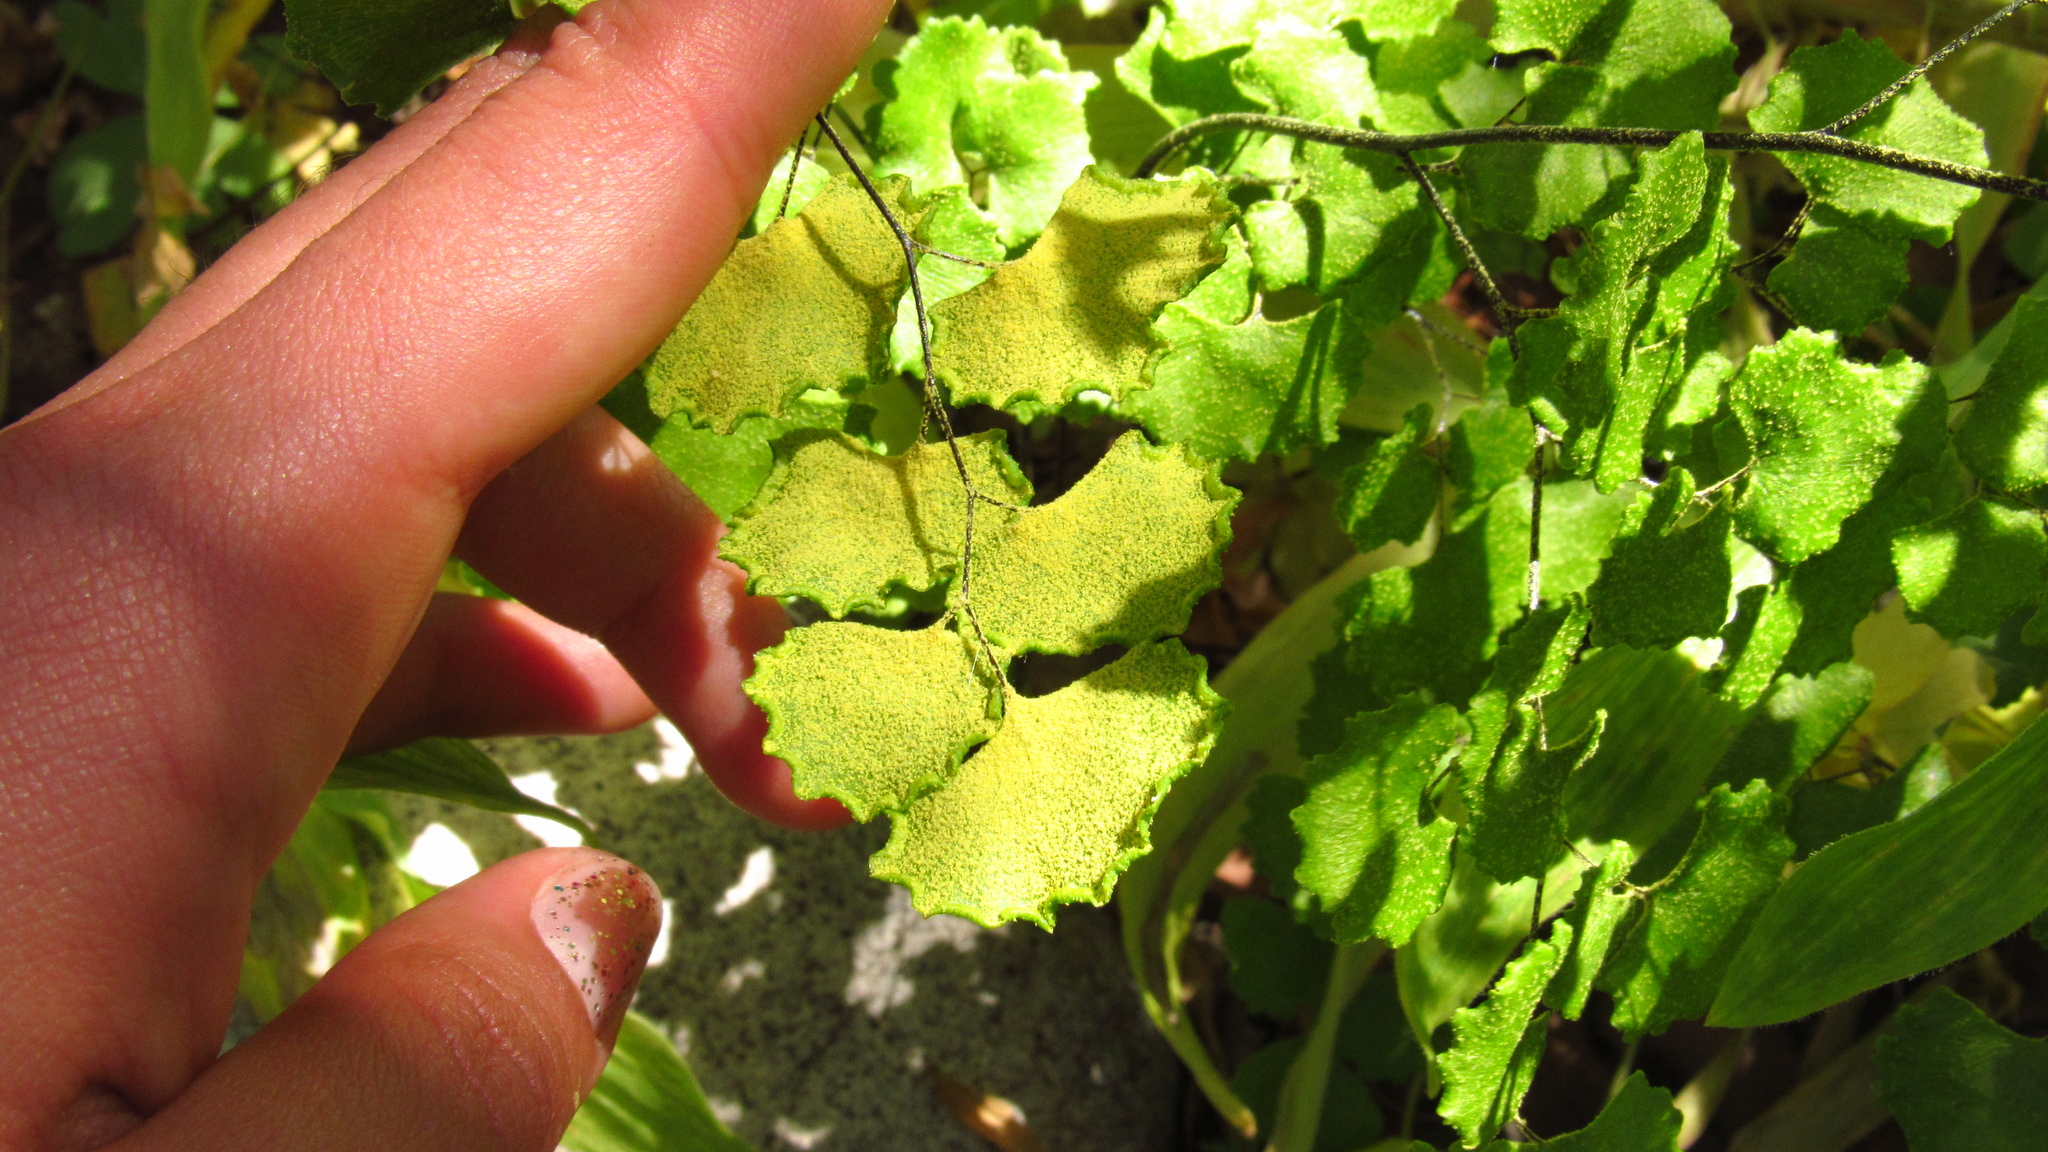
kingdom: Plantae
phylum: Tracheophyta
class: Polypodiopsida
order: Polypodiales
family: Pteridaceae
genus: Adiantum
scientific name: Adiantum sulphureum
